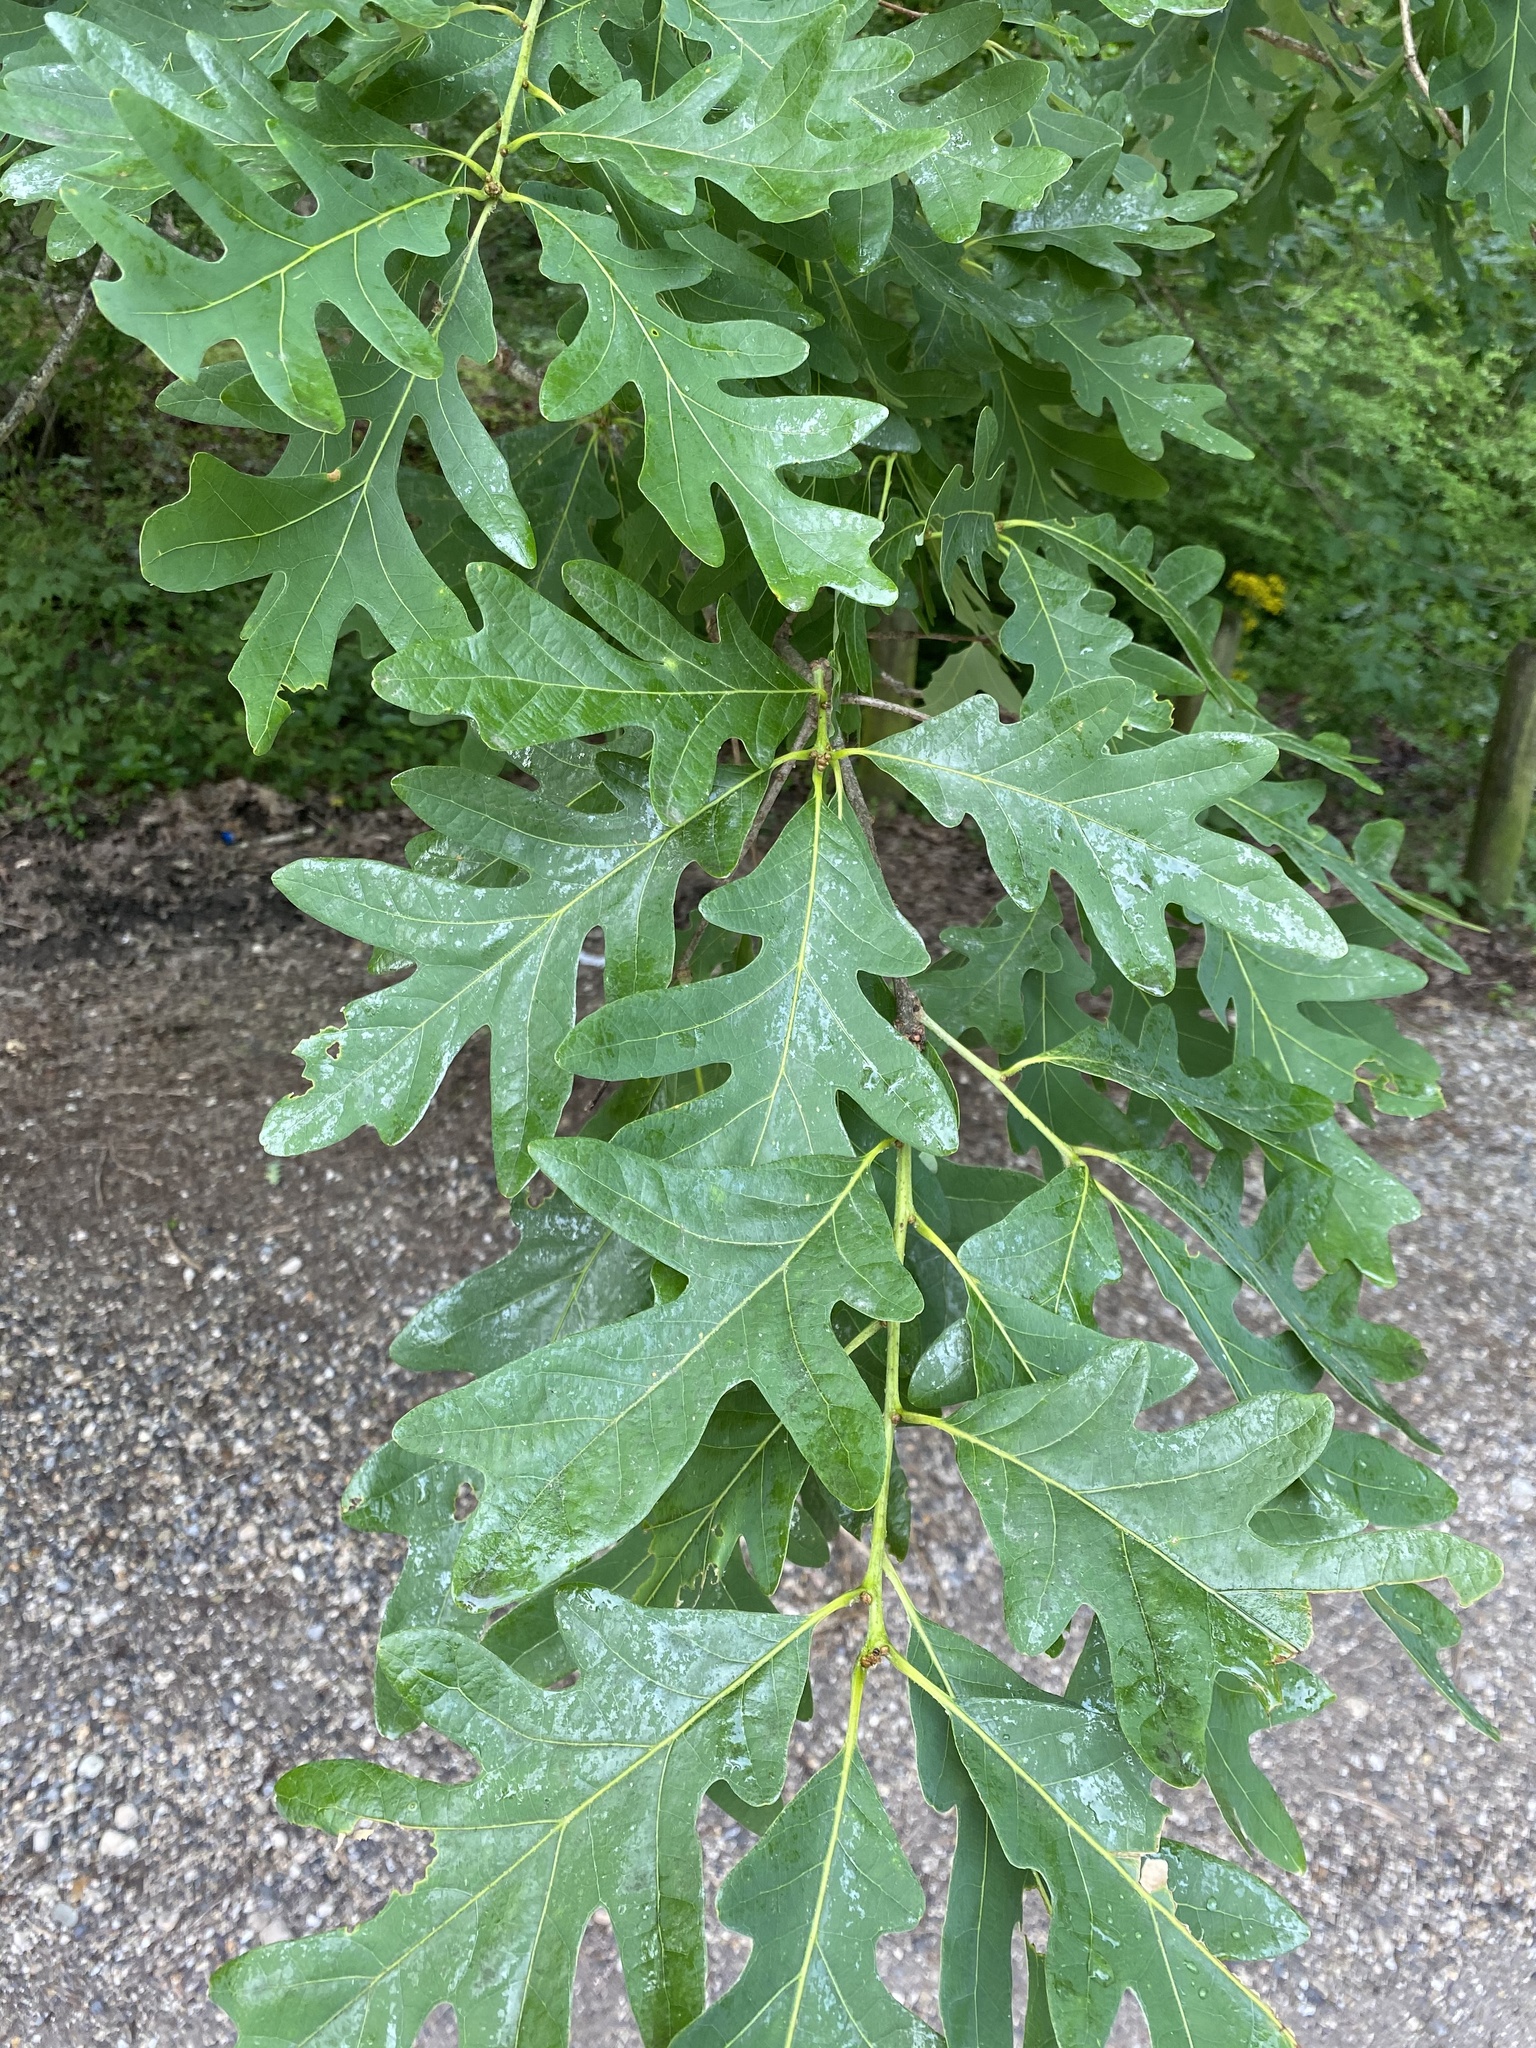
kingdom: Plantae
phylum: Tracheophyta
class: Magnoliopsida
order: Fagales
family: Fagaceae
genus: Quercus
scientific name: Quercus alba
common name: White oak
